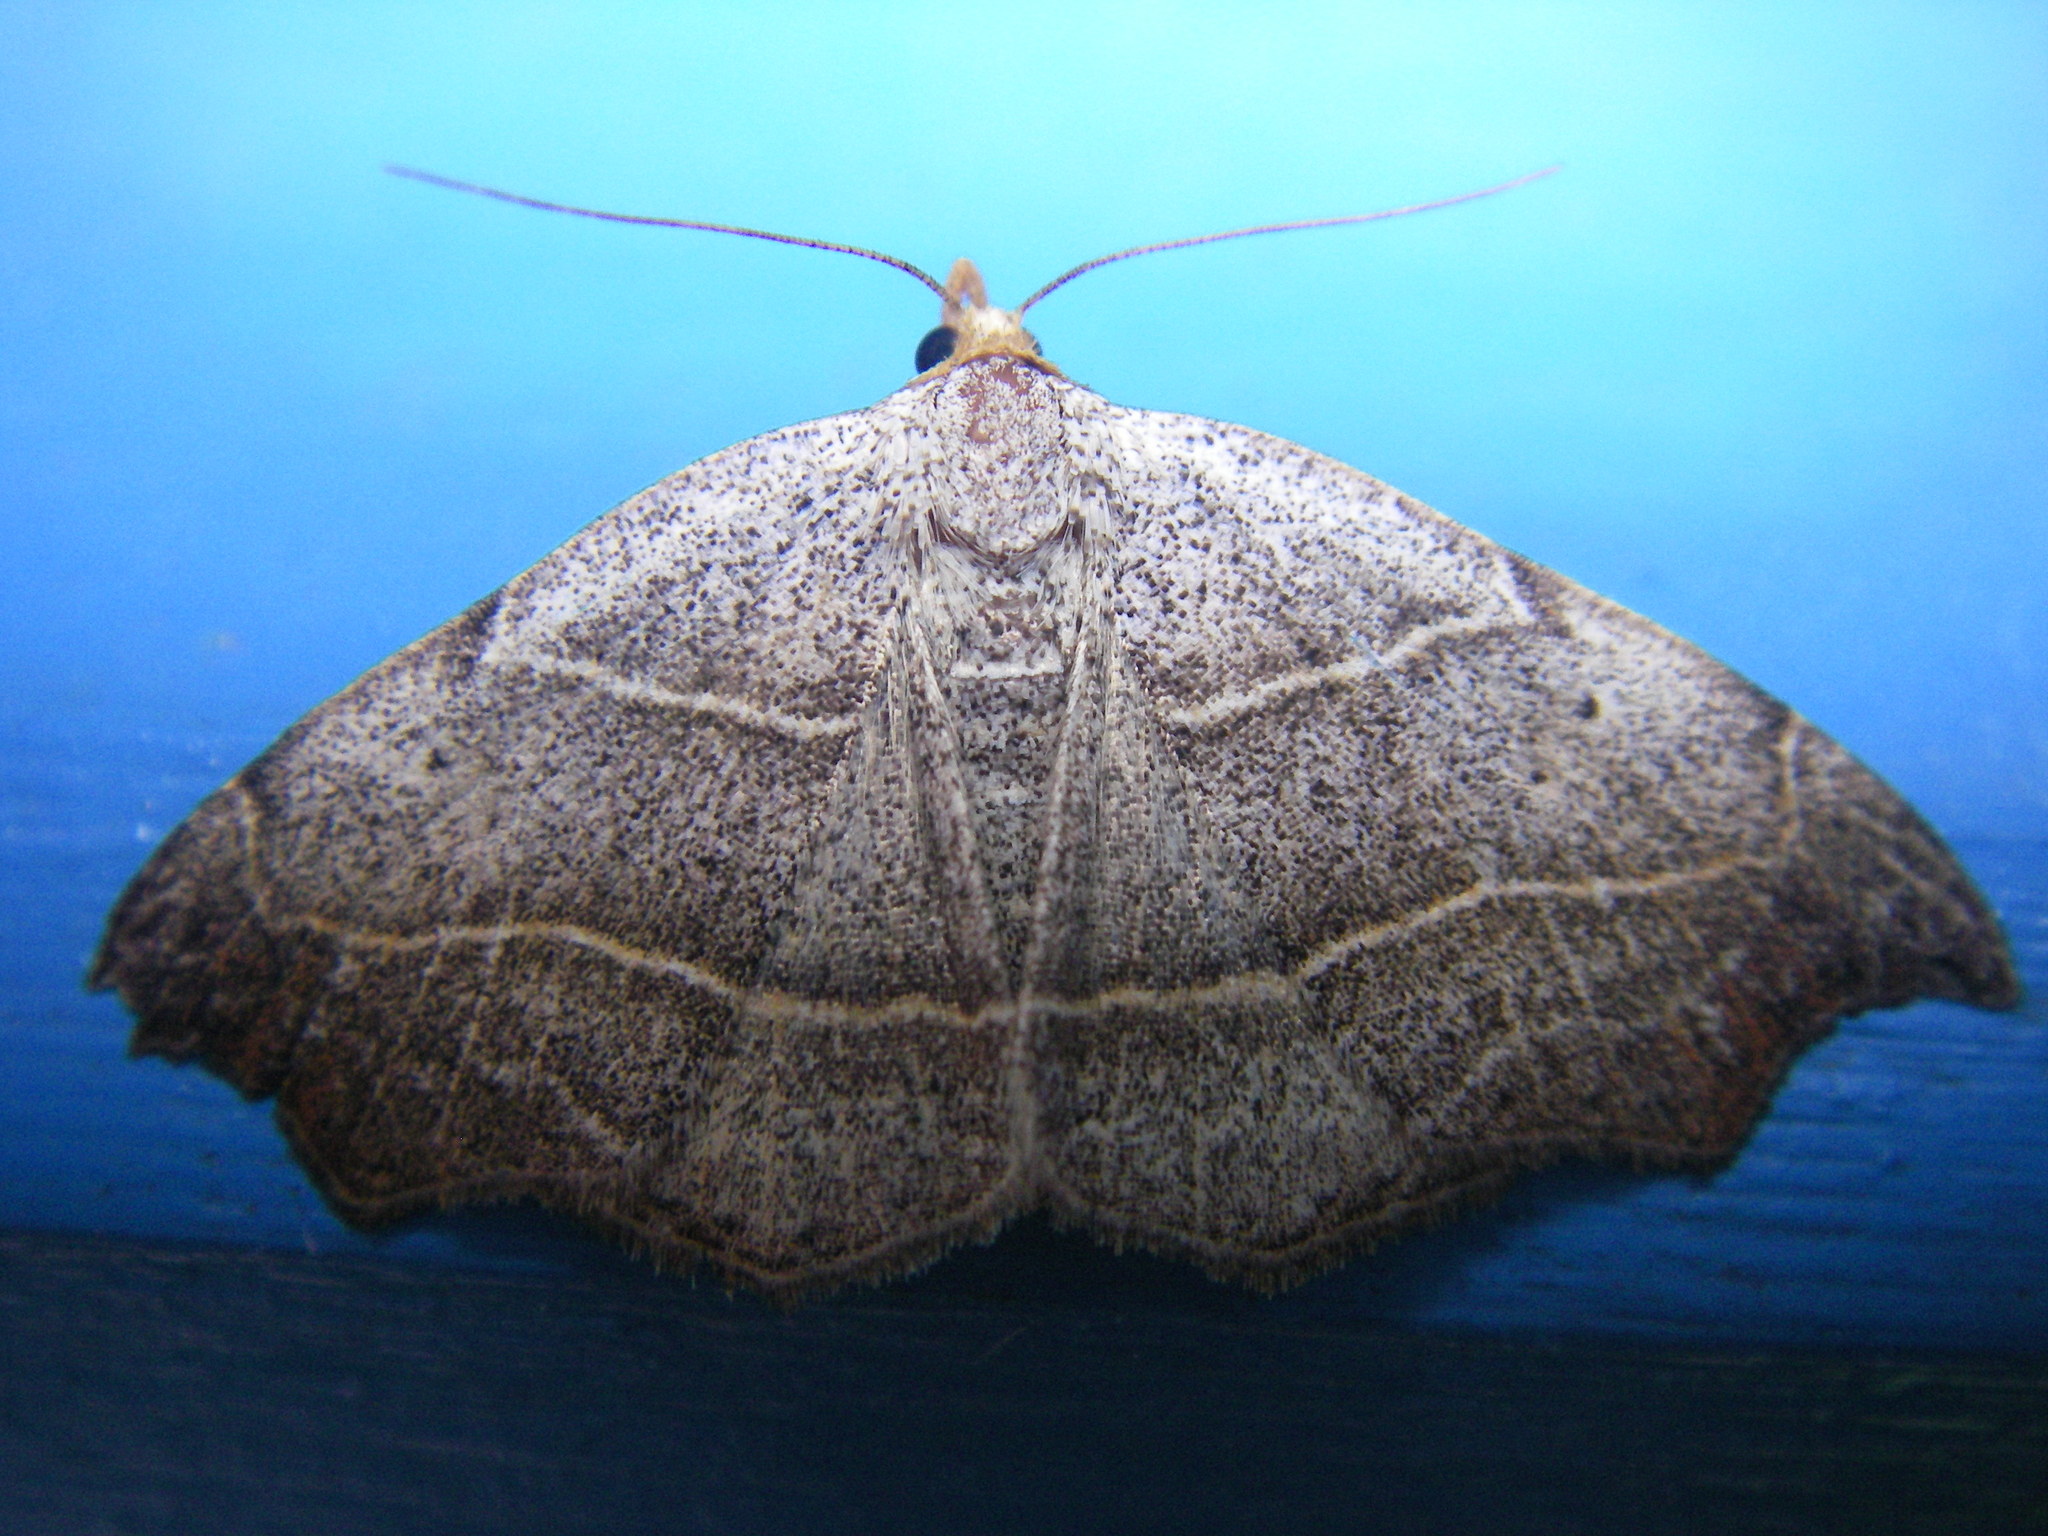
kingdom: Animalia
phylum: Arthropoda
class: Insecta
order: Lepidoptera
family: Erebidae
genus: Laspeyria
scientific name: Laspeyria flexula
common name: Beautiful hook-tip
